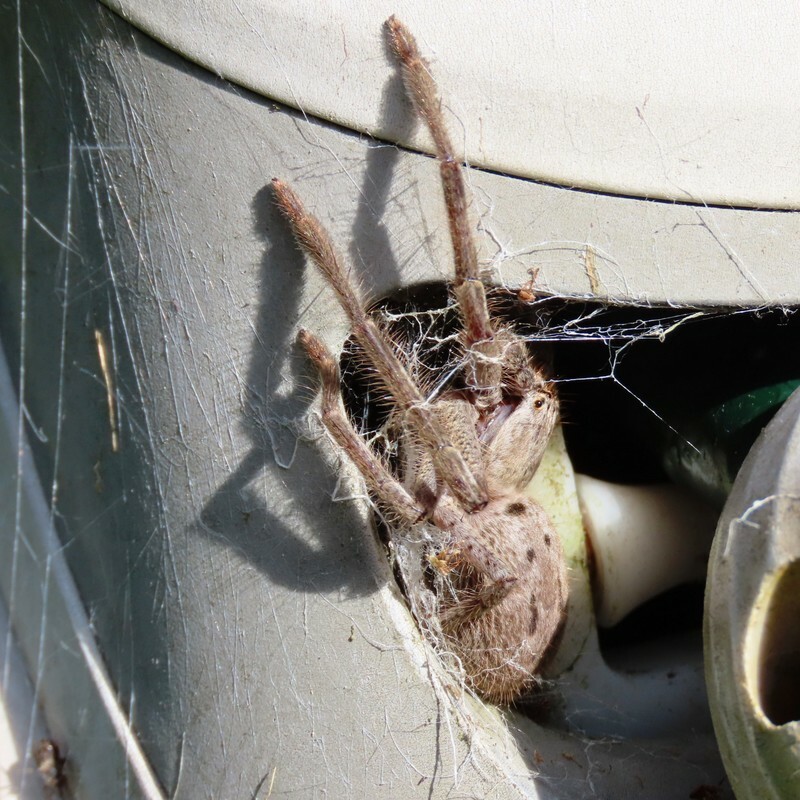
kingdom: Animalia
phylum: Arthropoda
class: Arachnida
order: Araneae
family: Sparassidae
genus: Isopeda
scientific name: Isopeda montana
